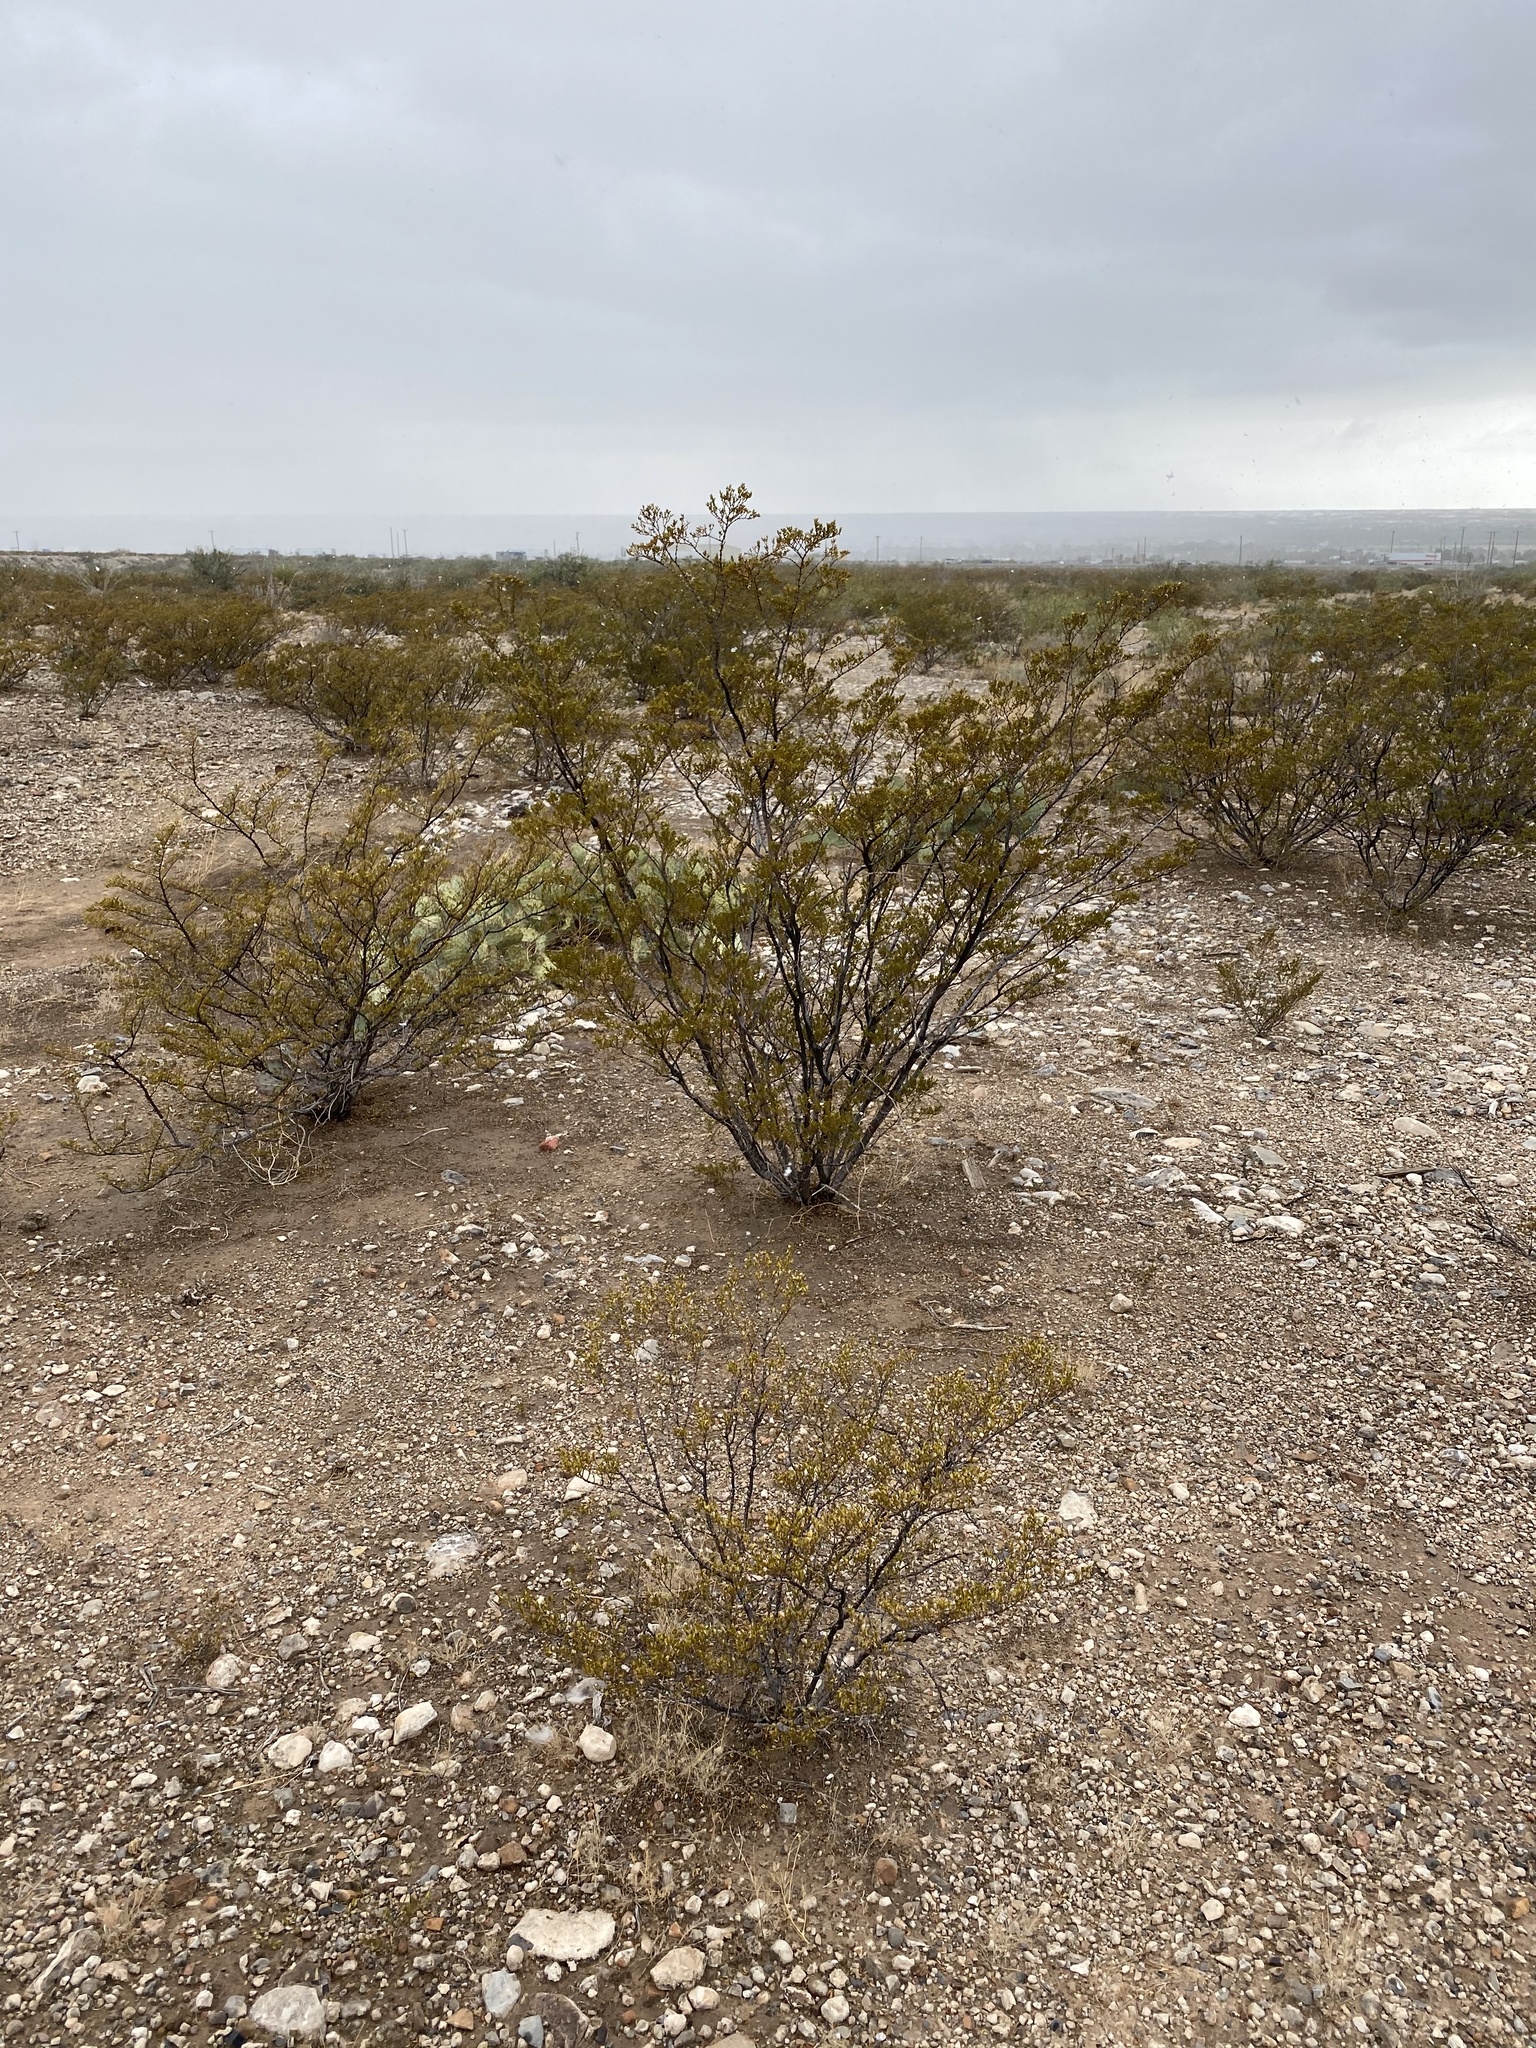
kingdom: Plantae
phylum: Tracheophyta
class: Magnoliopsida
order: Zygophyllales
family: Zygophyllaceae
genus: Larrea
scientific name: Larrea tridentata
